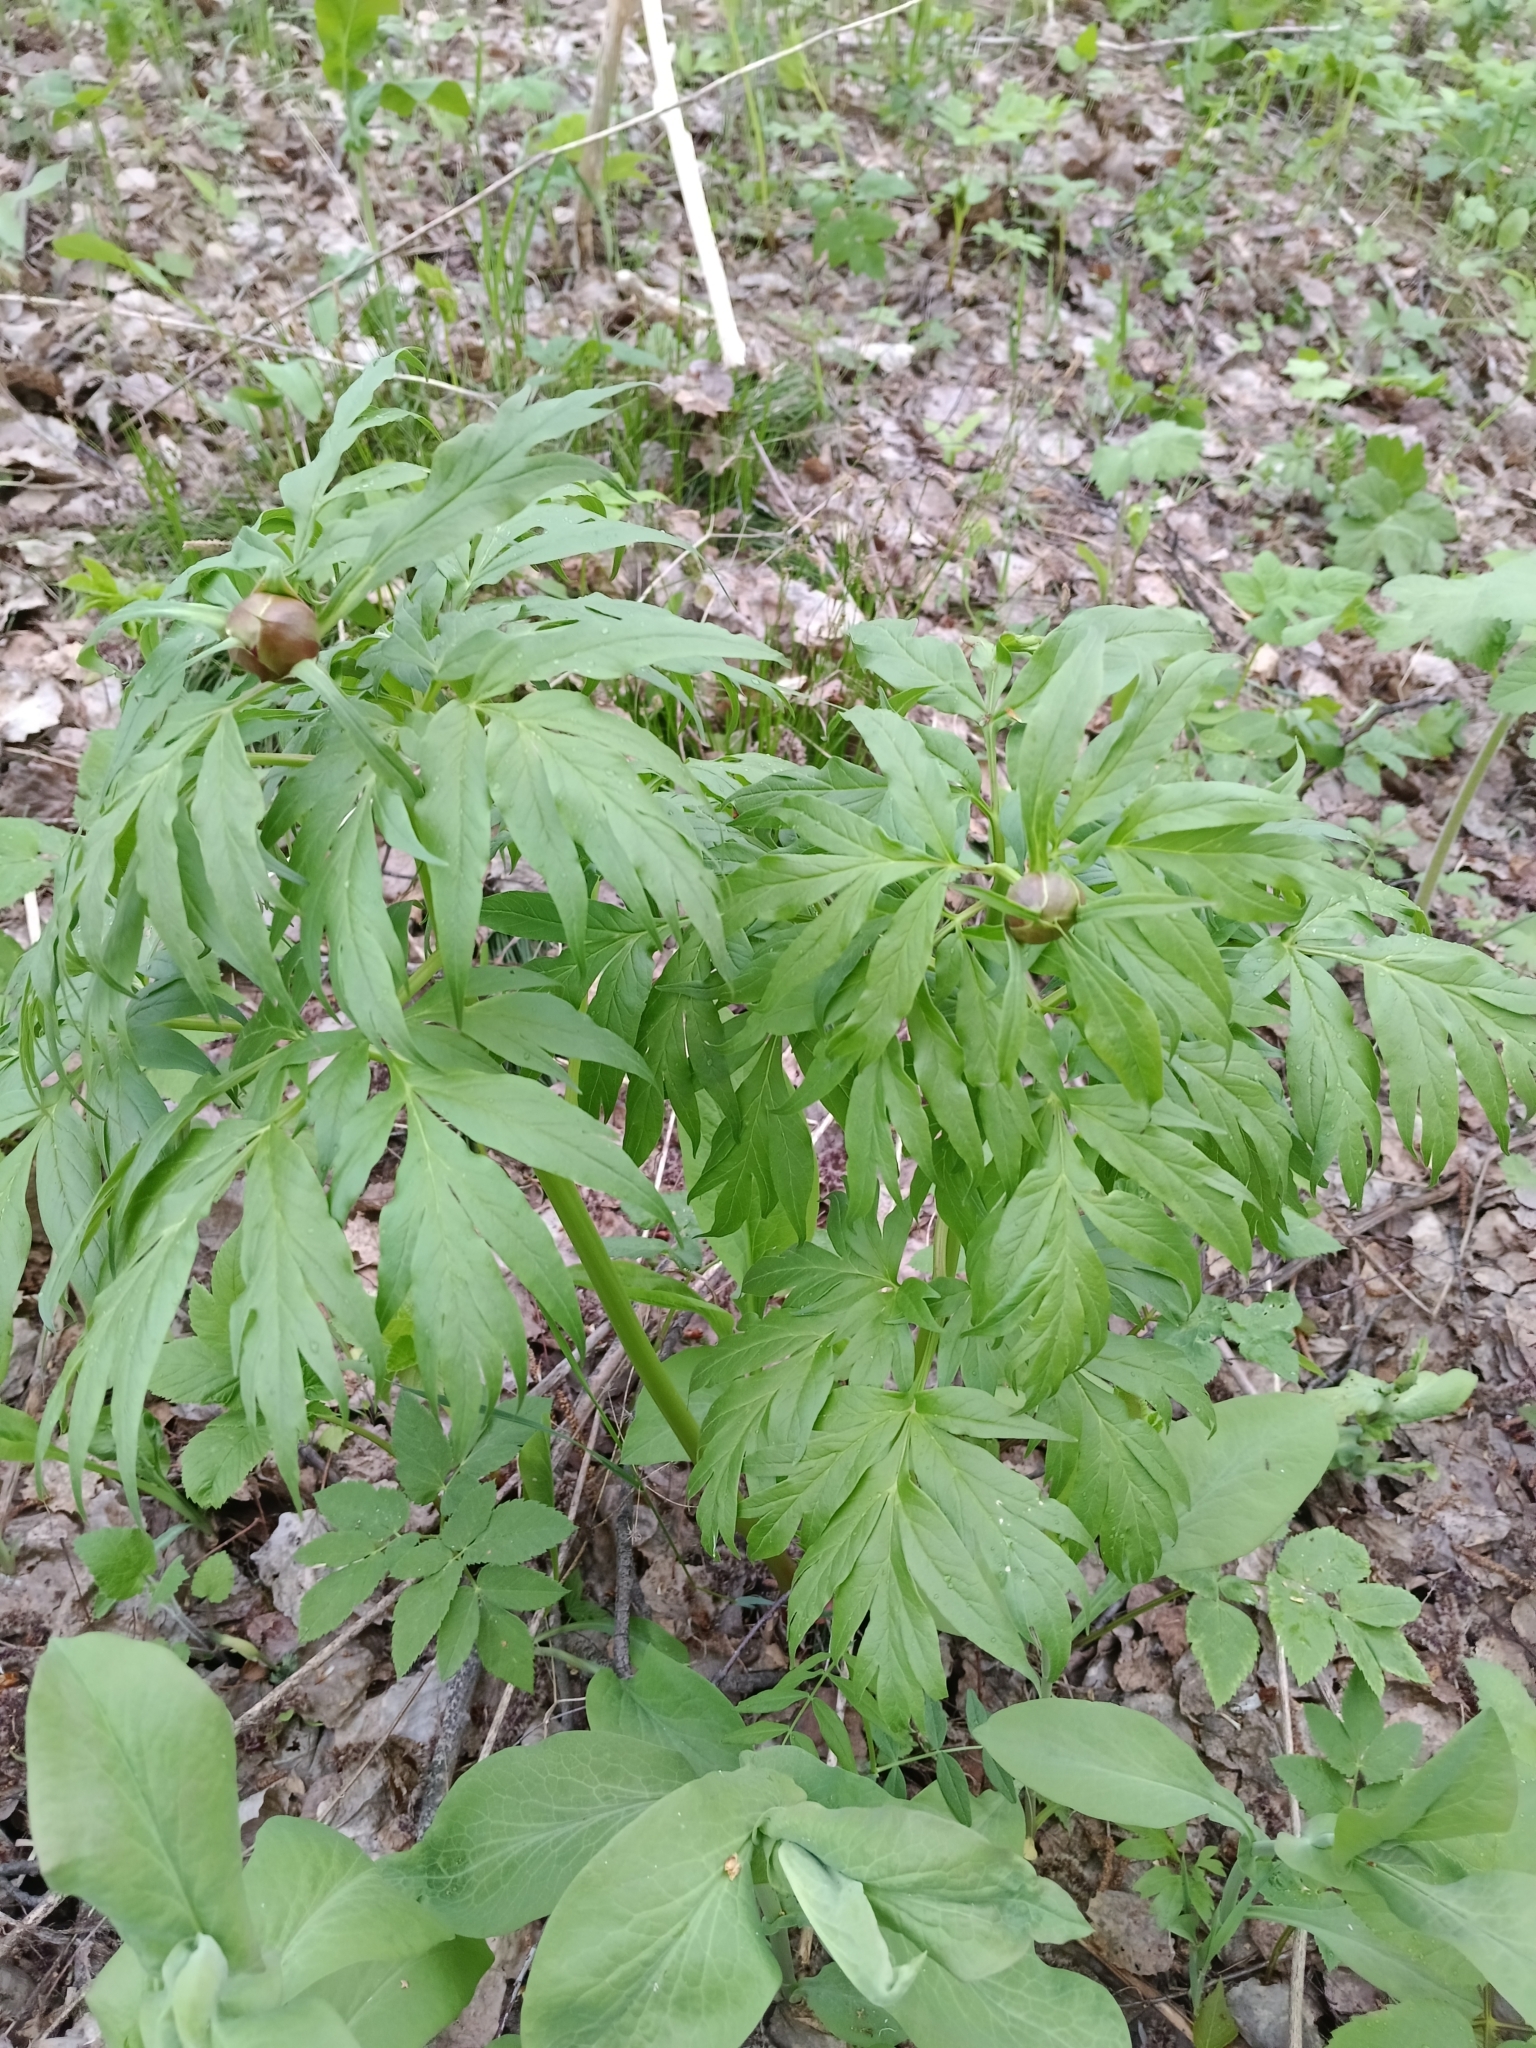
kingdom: Plantae
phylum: Tracheophyta
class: Magnoliopsida
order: Saxifragales
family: Paeoniaceae
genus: Paeonia
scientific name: Paeonia anomala
